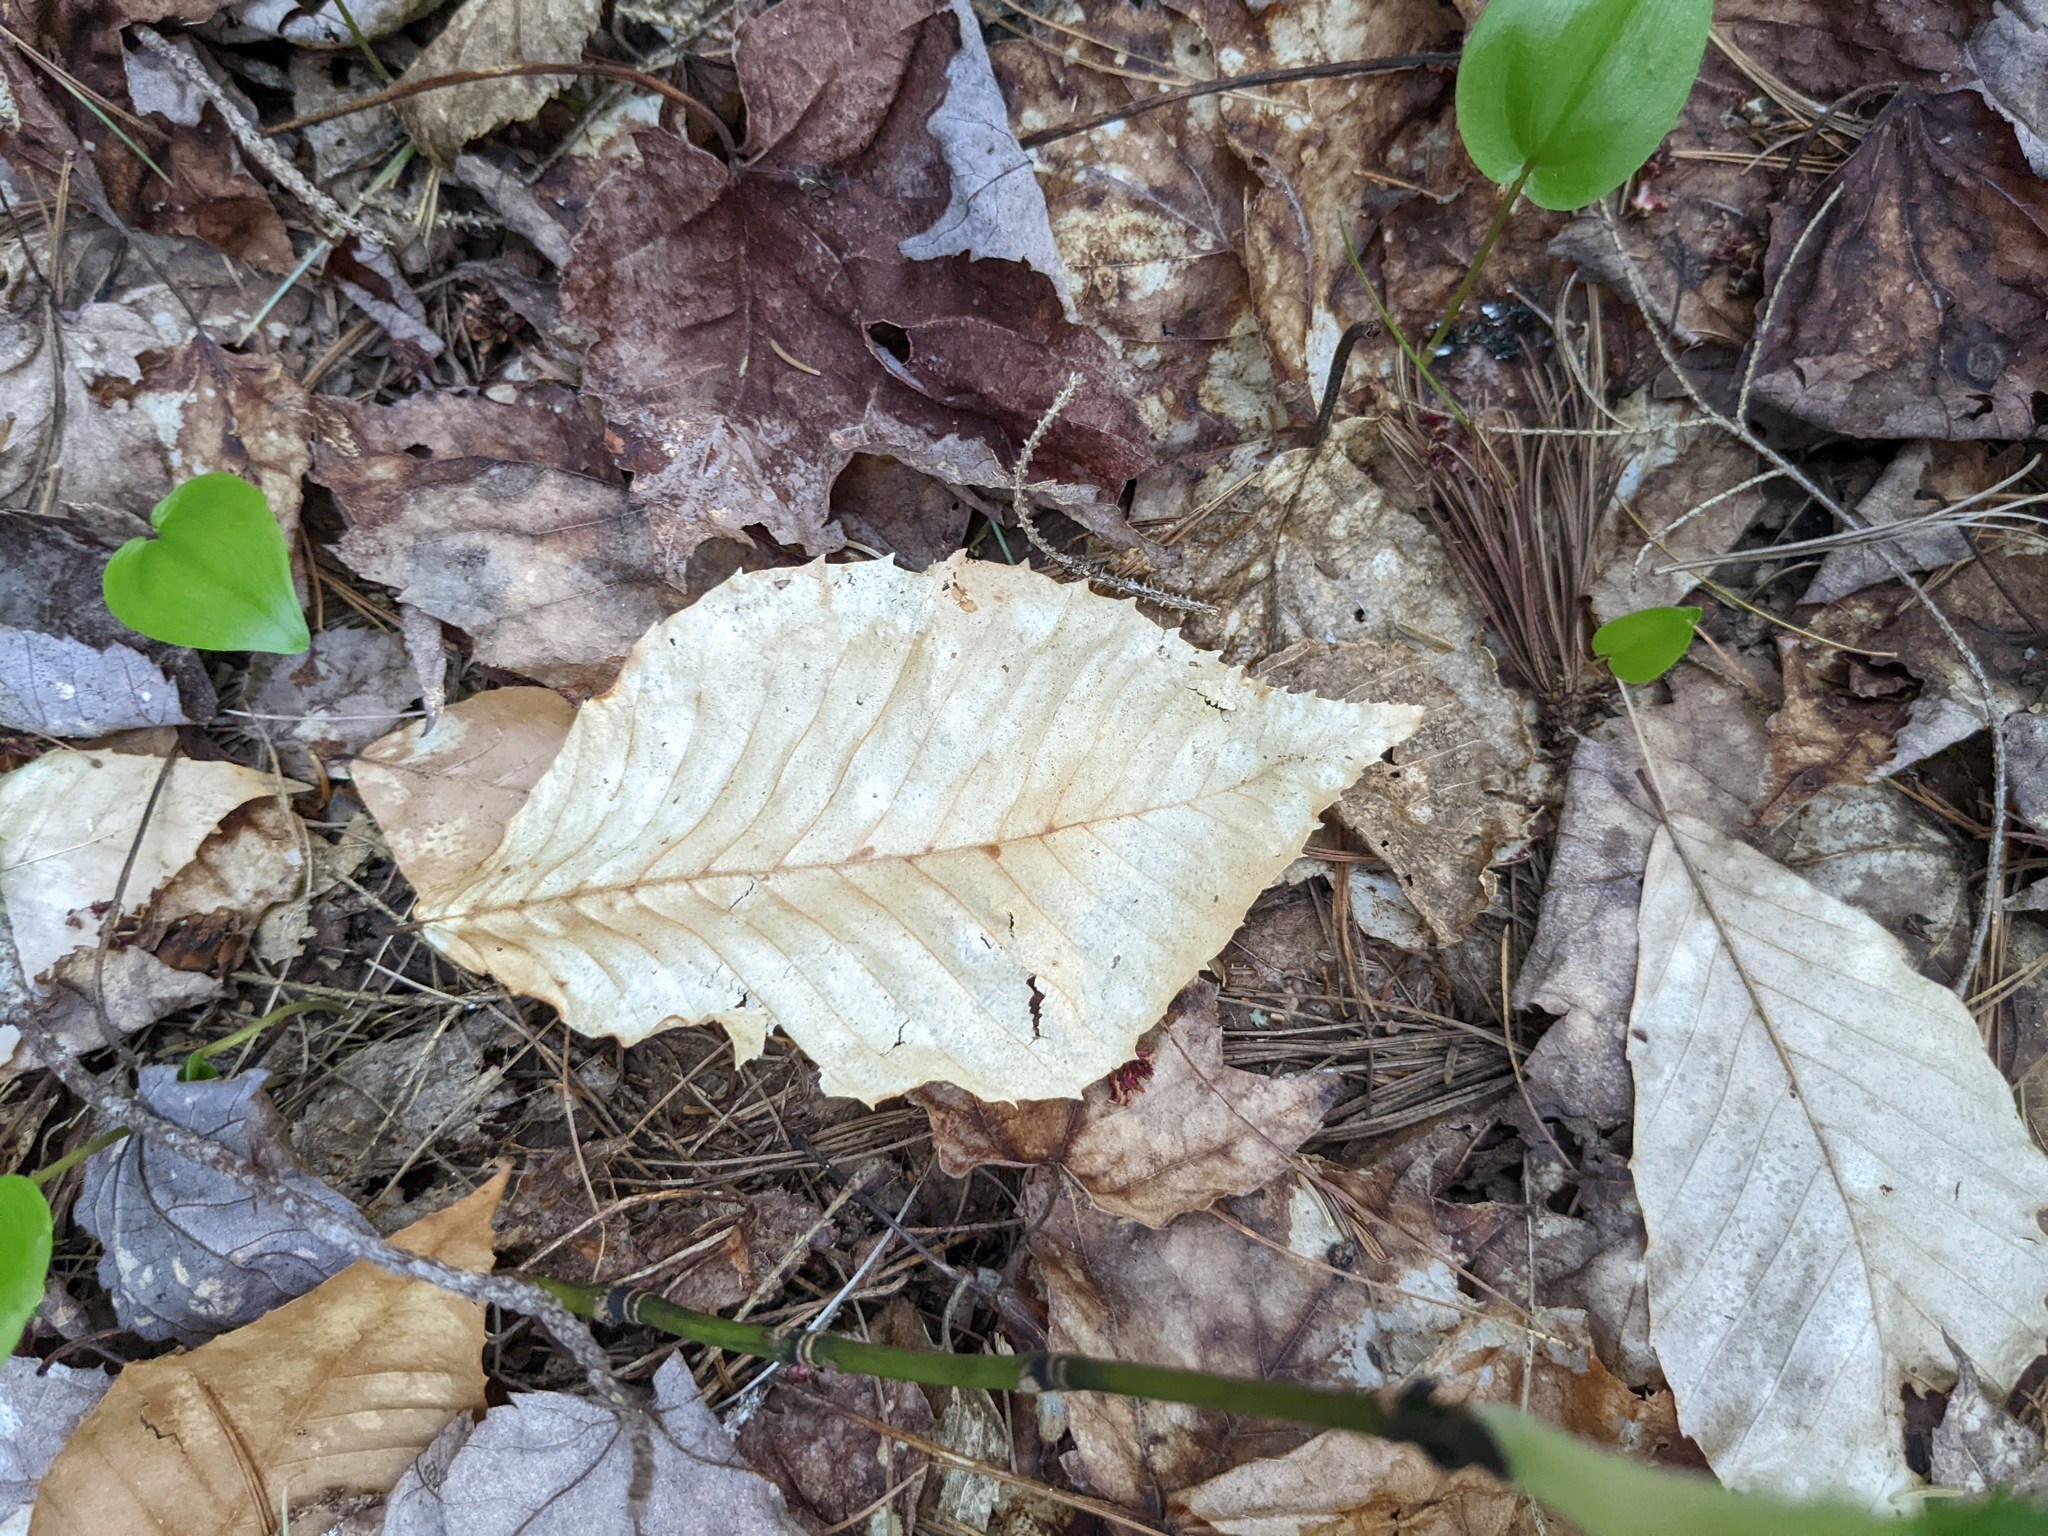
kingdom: Plantae
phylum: Tracheophyta
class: Magnoliopsida
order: Fagales
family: Fagaceae
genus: Fagus
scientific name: Fagus grandifolia
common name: American beech
